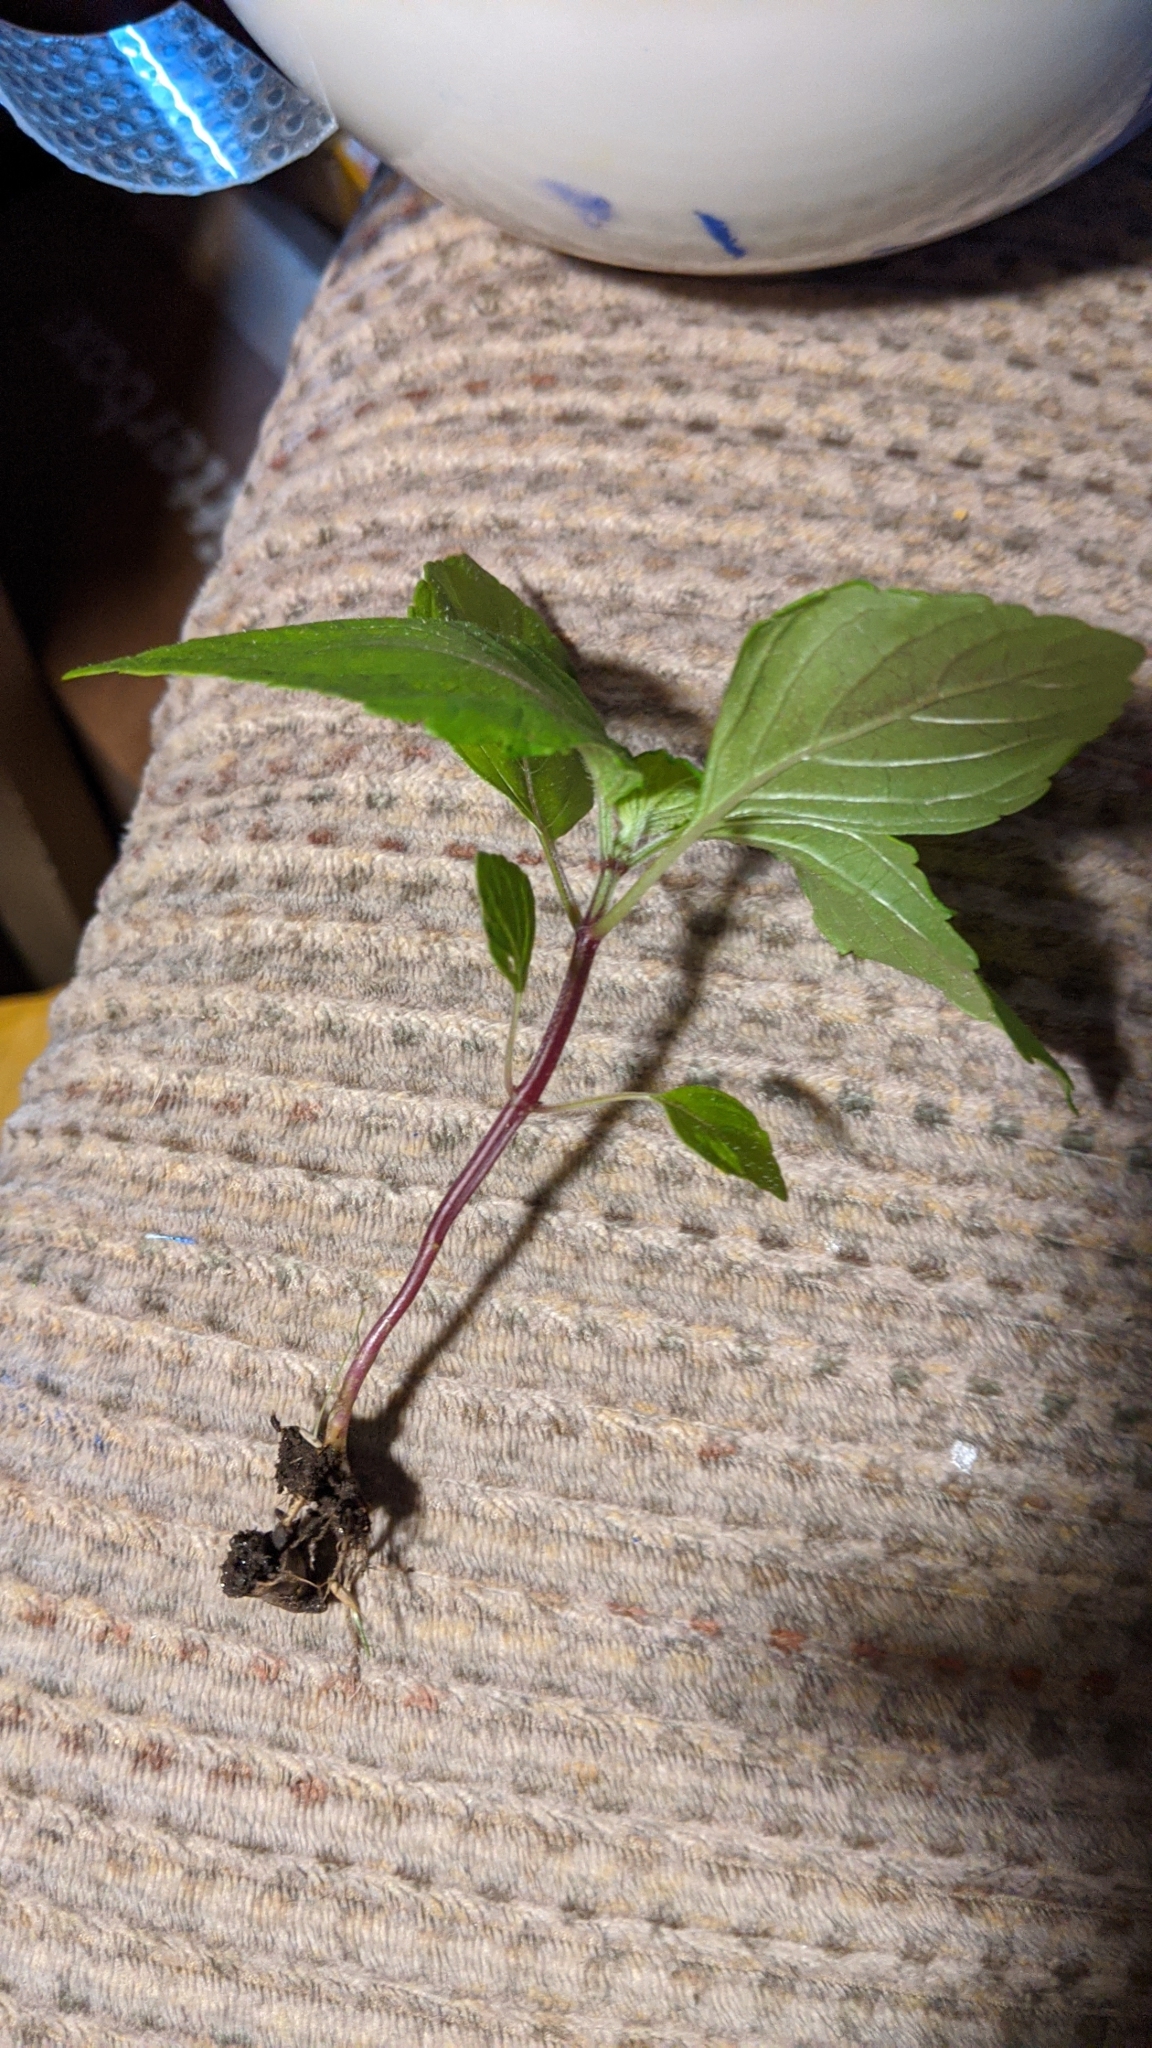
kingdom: Plantae
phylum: Tracheophyta
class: Magnoliopsida
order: Lamiales
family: Lamiaceae
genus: Perilla
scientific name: Perilla frutescens
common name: Perilla
